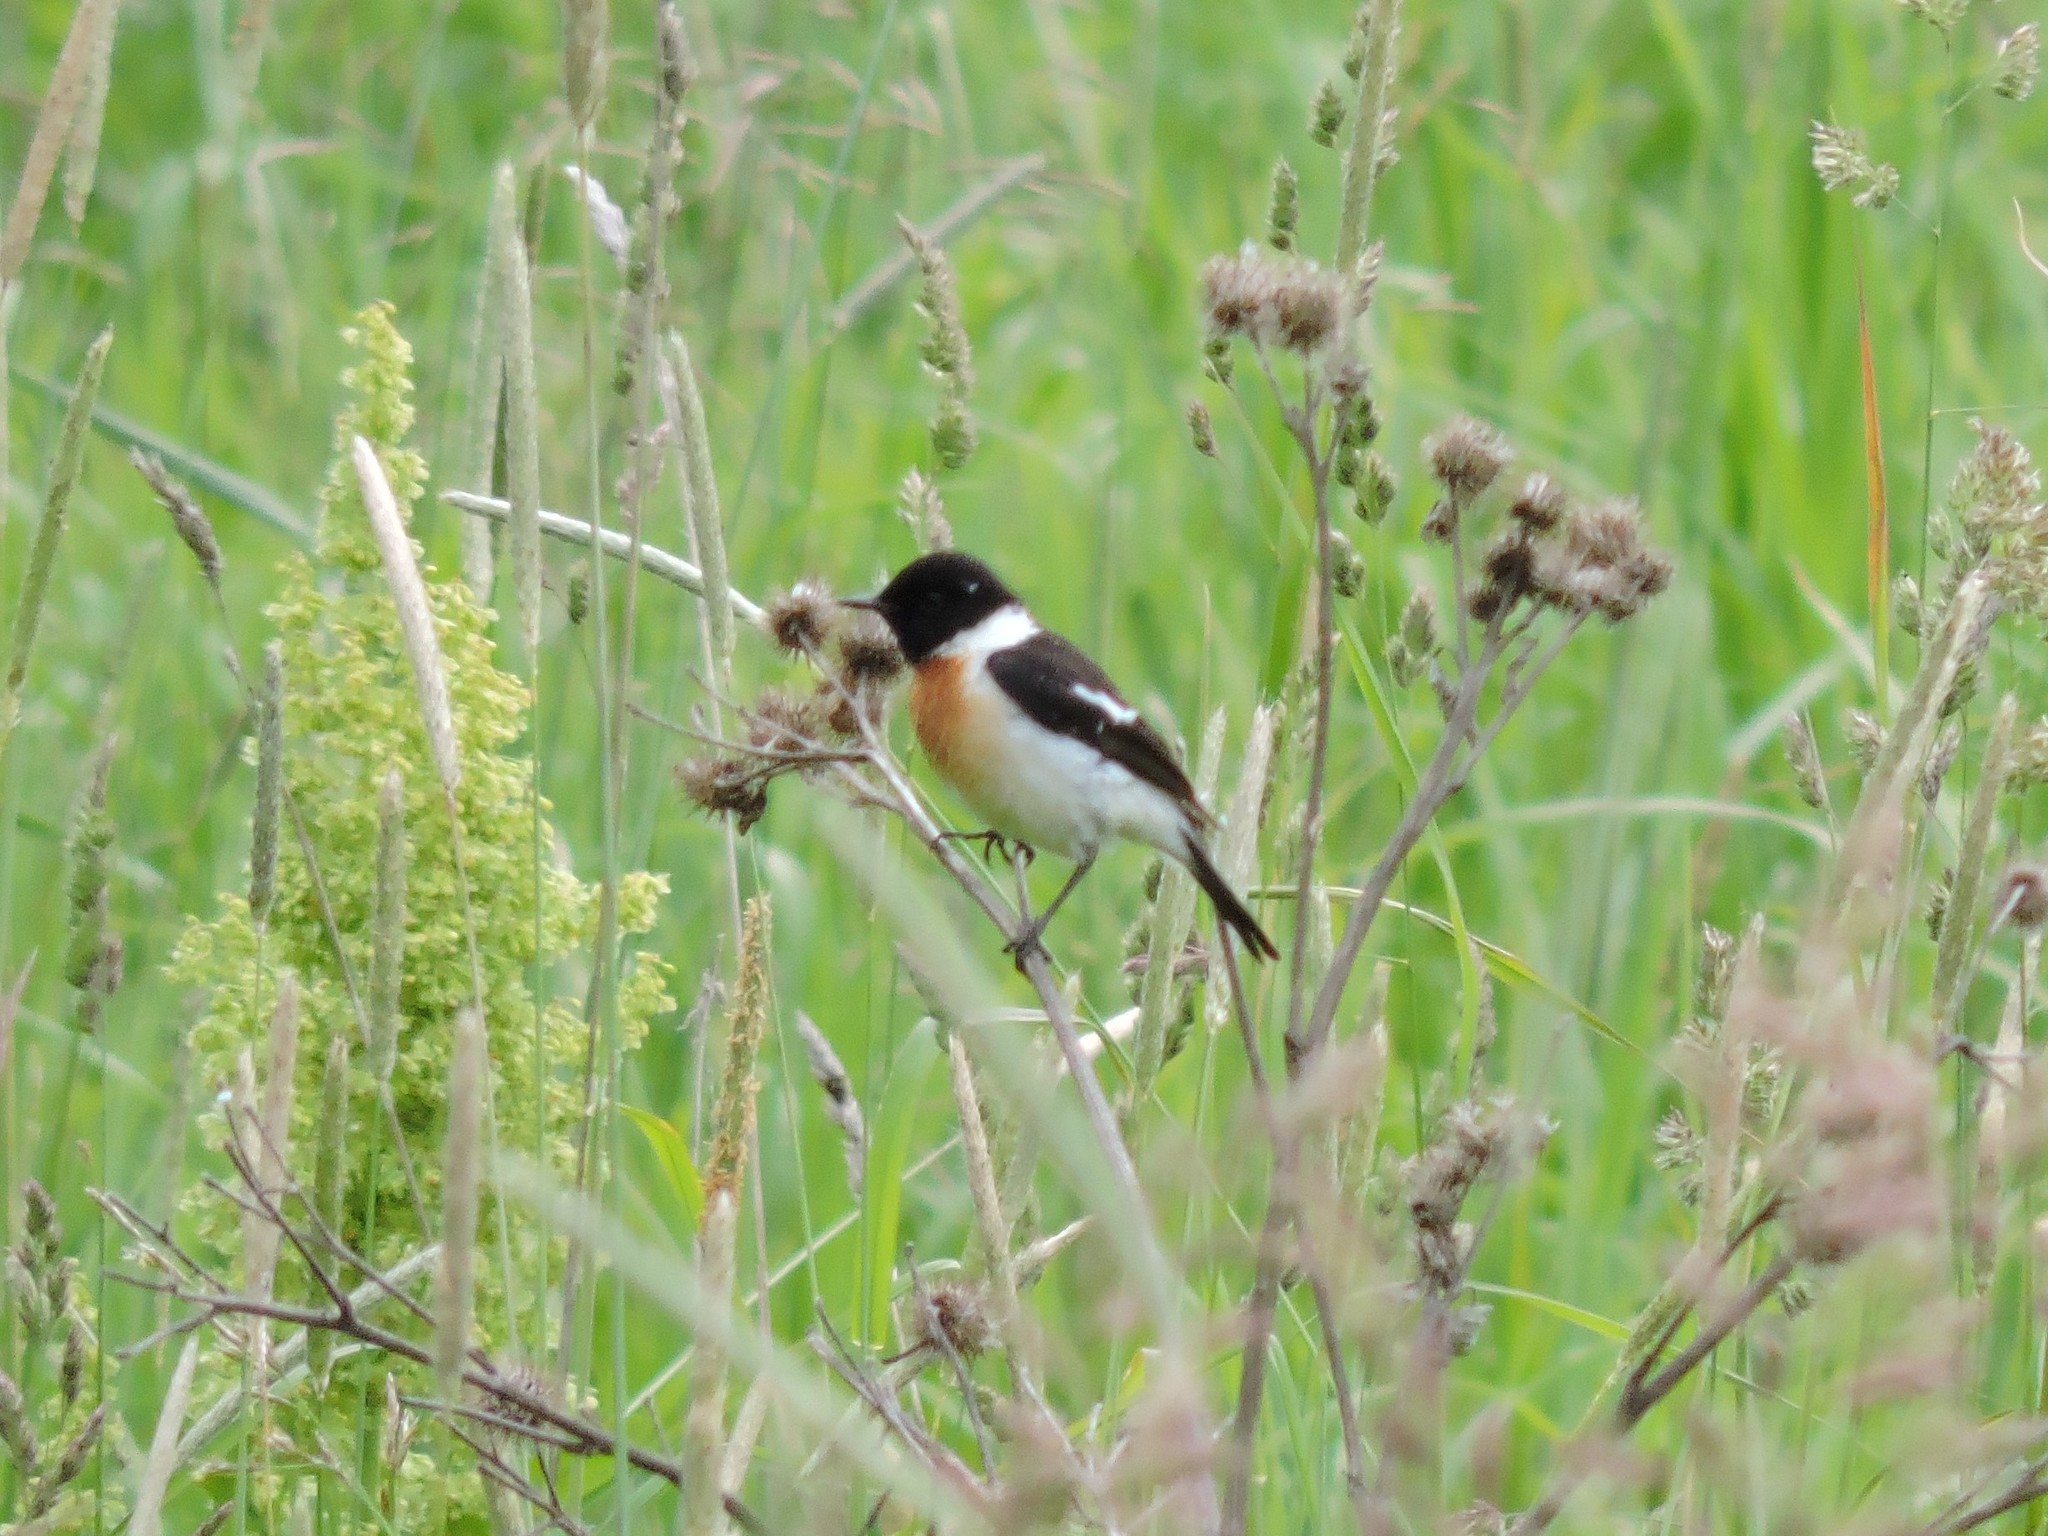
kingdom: Animalia
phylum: Chordata
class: Aves
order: Passeriformes
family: Muscicapidae
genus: Saxicola
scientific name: Saxicola maurus
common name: Siberian stonechat
